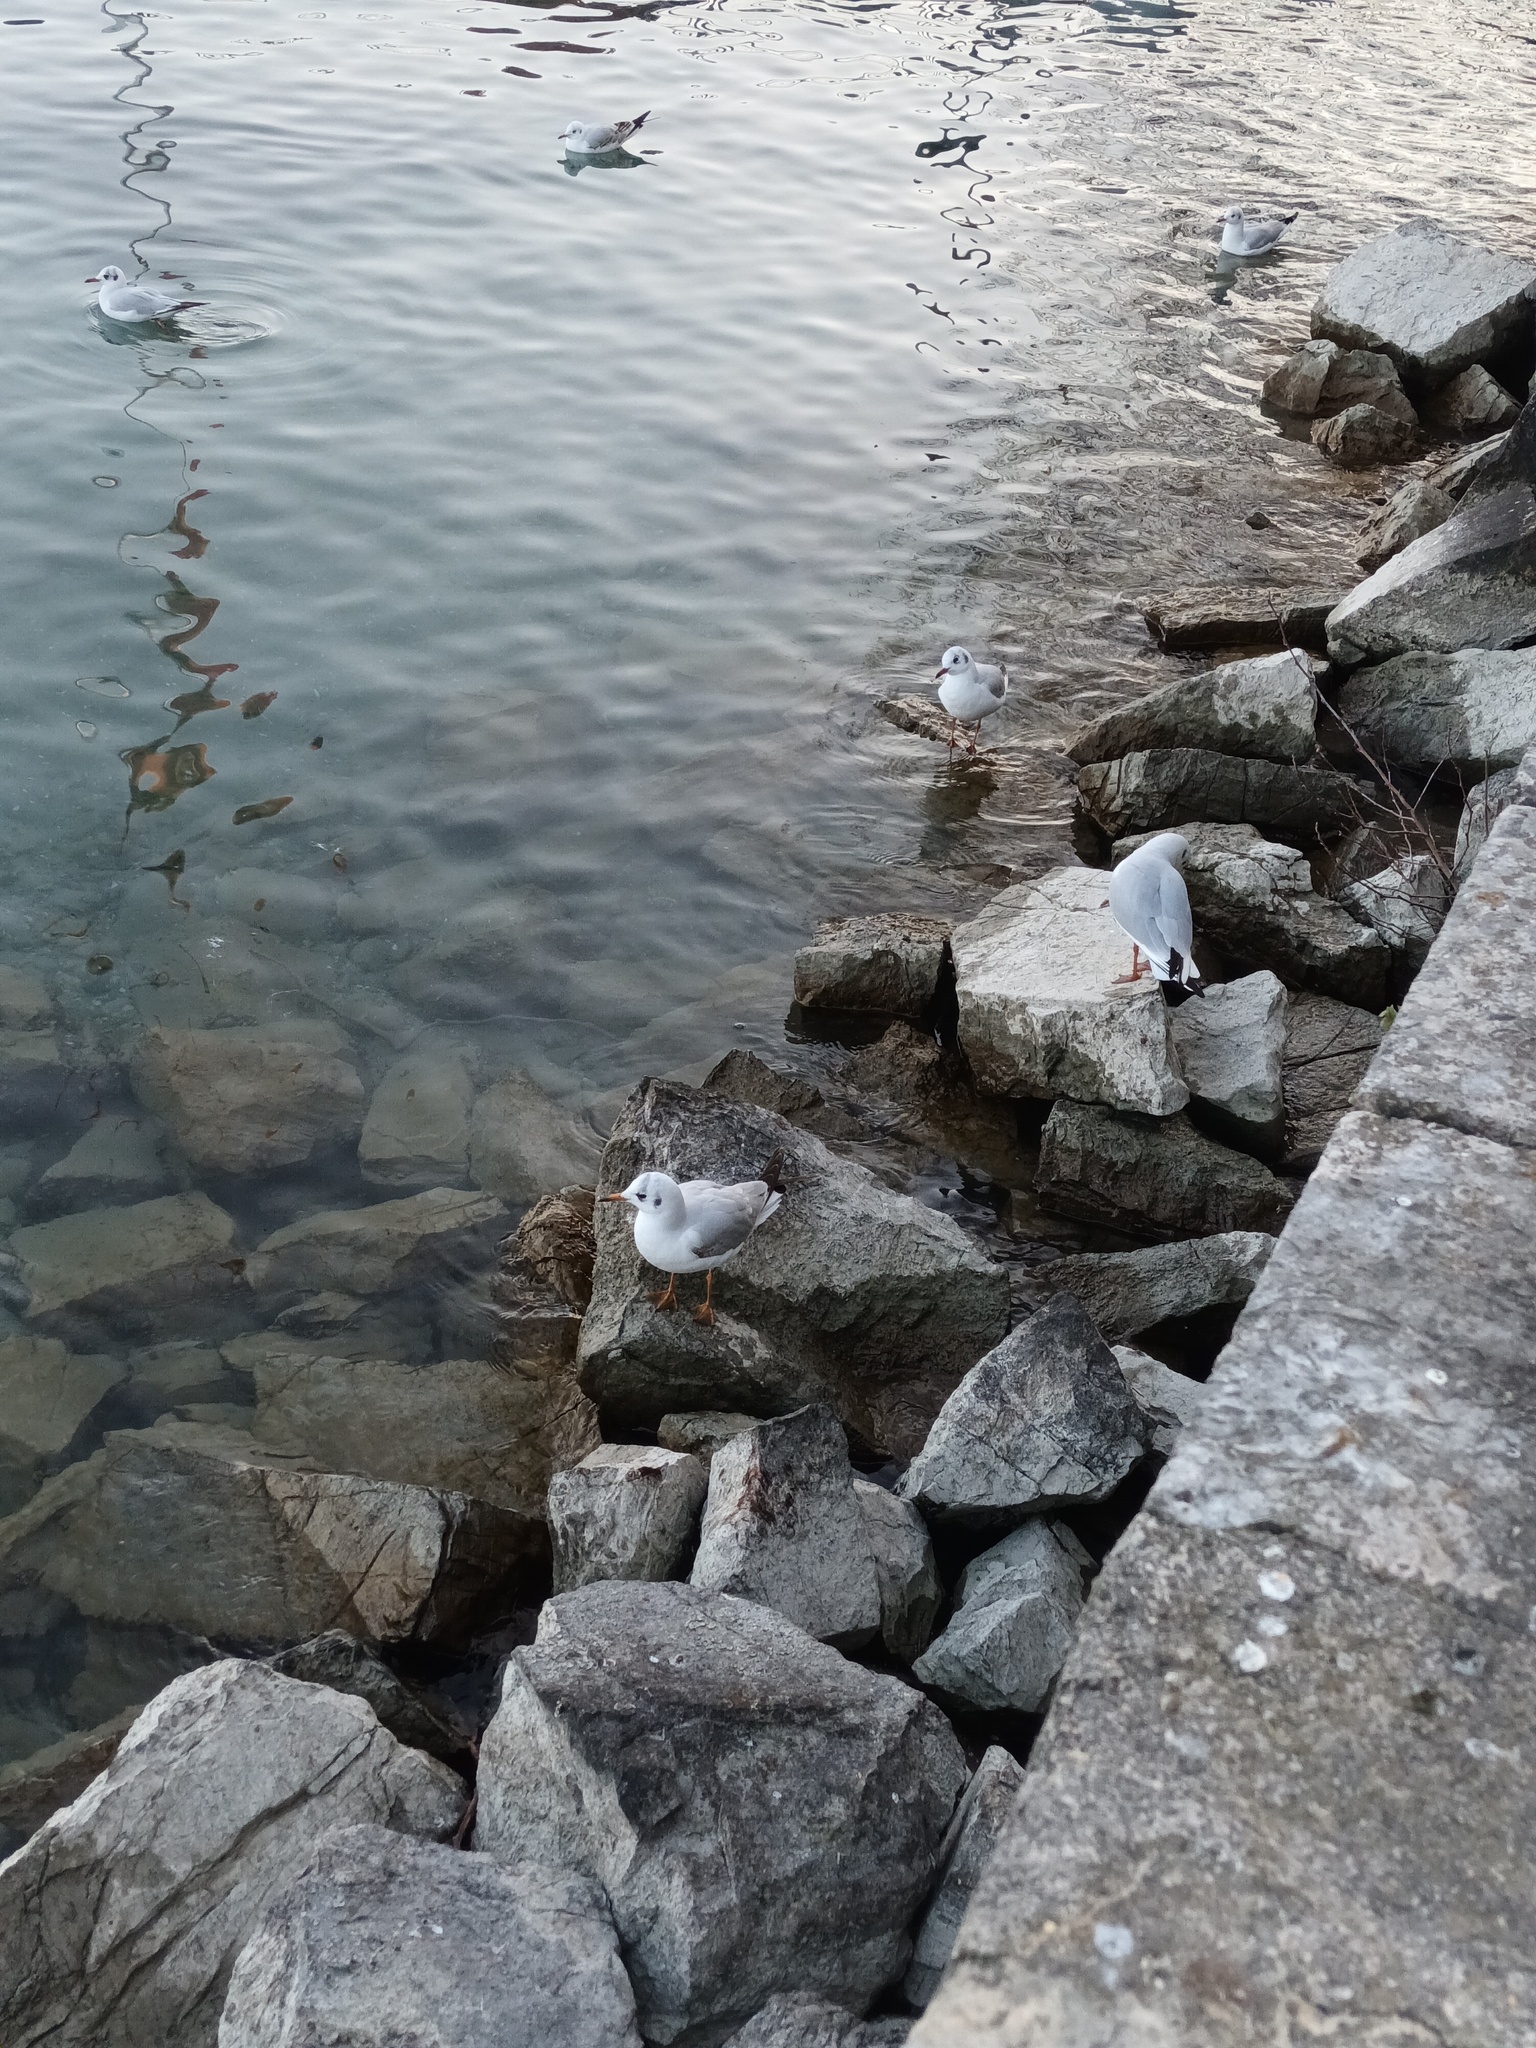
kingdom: Animalia
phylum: Chordata
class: Aves
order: Charadriiformes
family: Laridae
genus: Chroicocephalus
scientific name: Chroicocephalus ridibundus
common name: Black-headed gull
